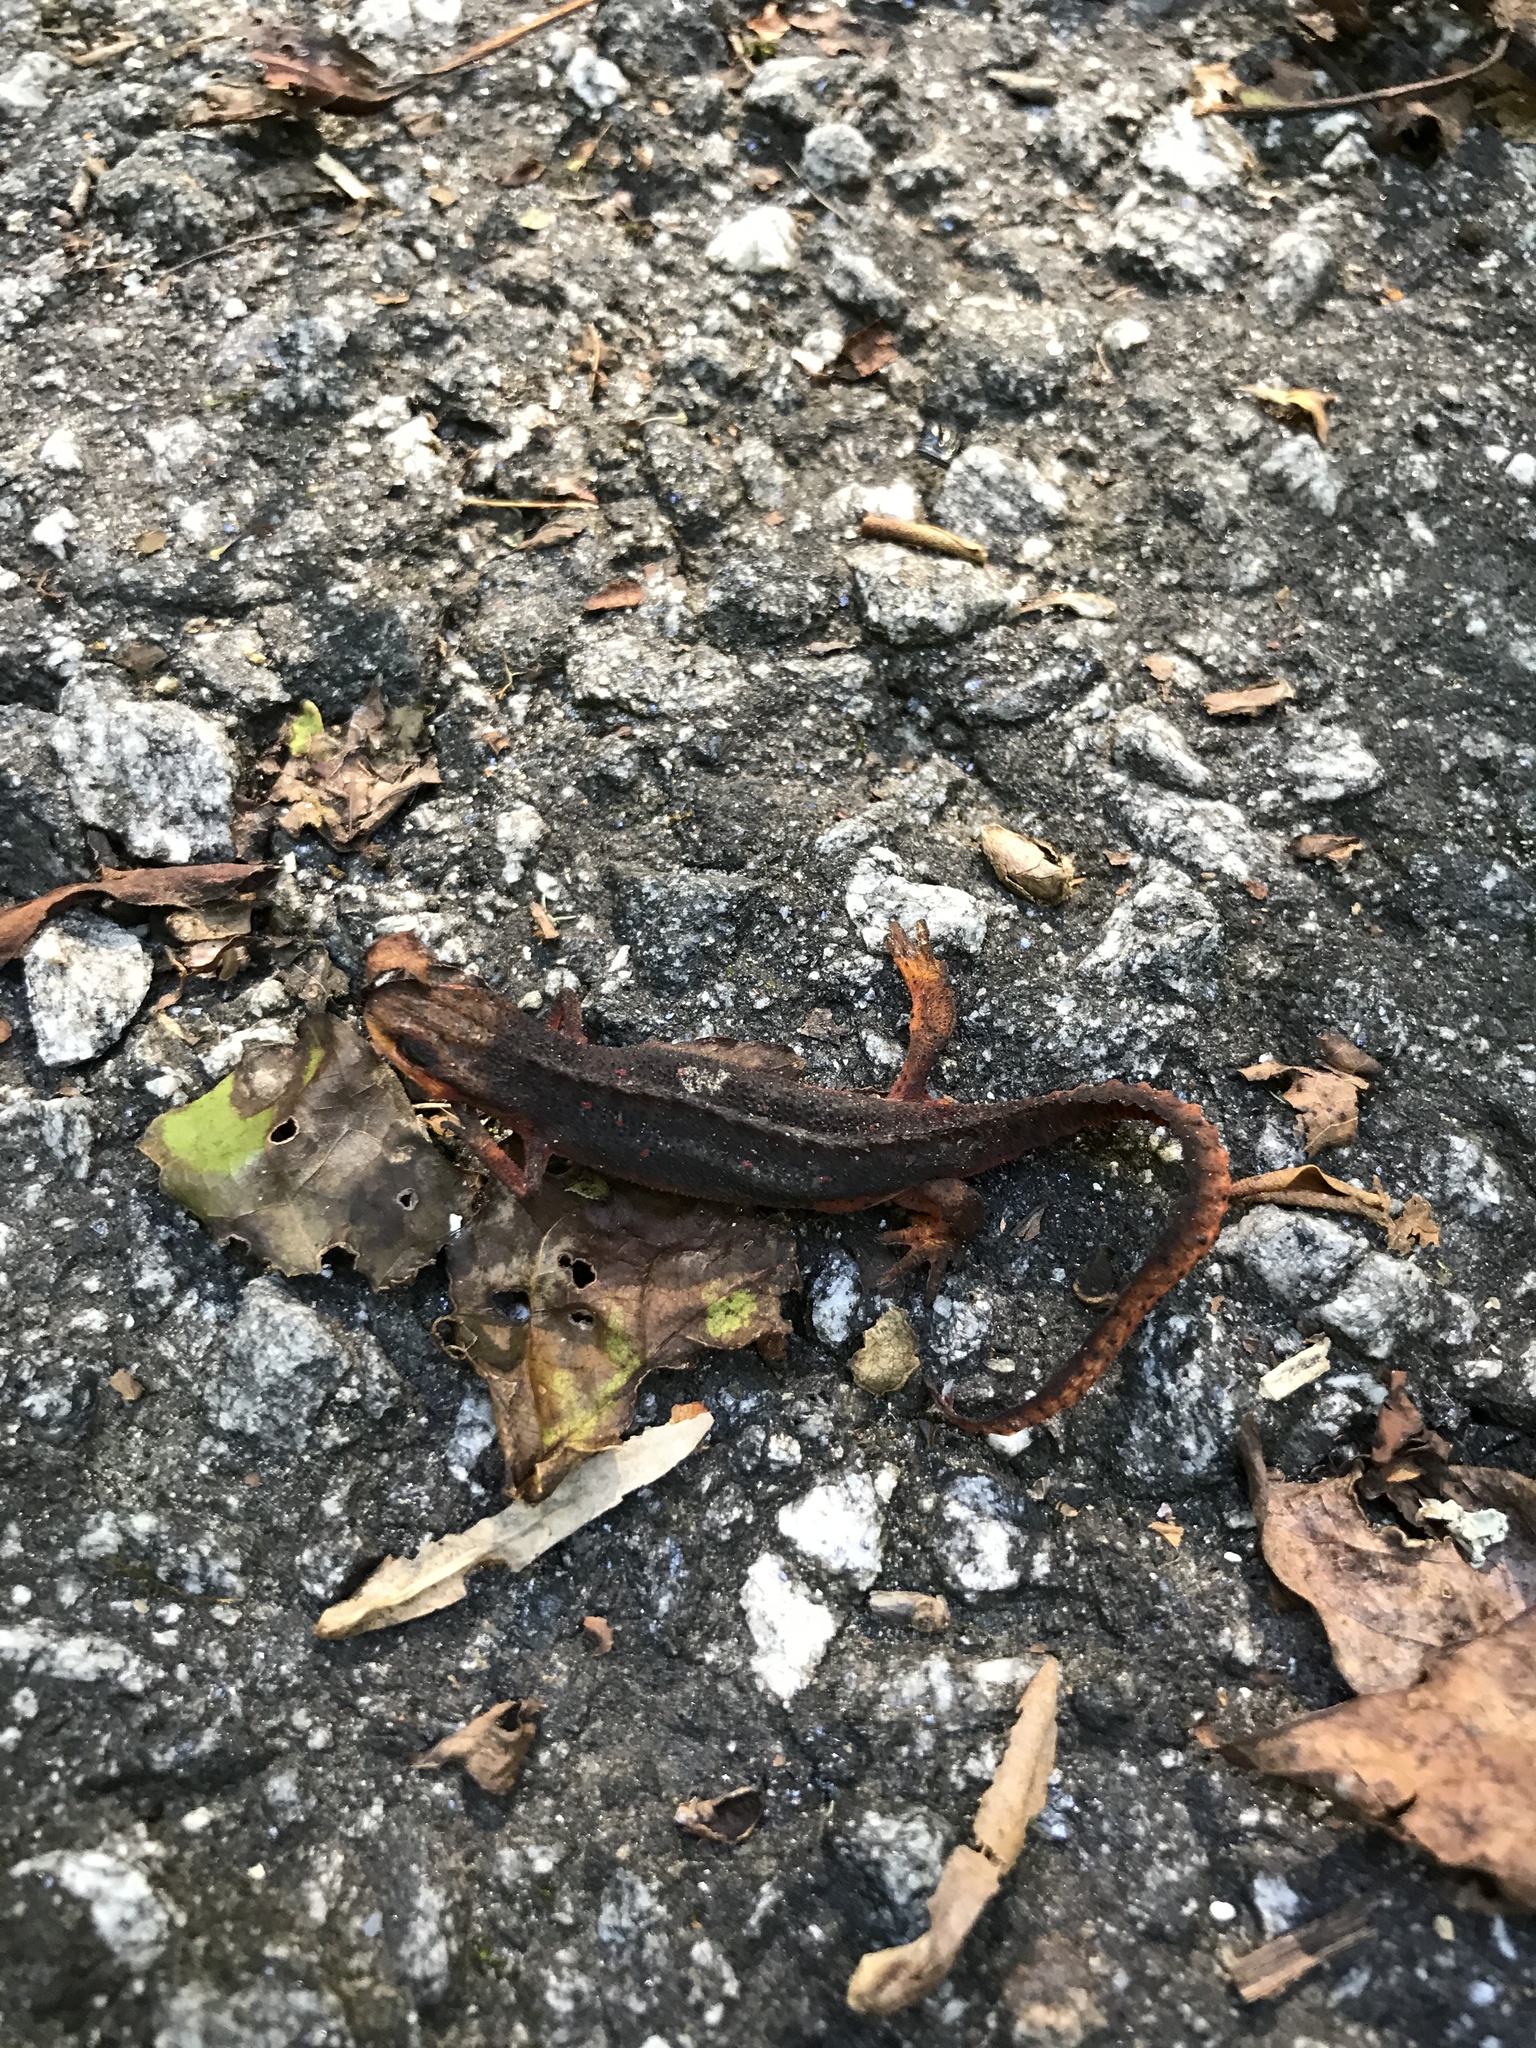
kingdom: Animalia
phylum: Chordata
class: Amphibia
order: Caudata
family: Salamandridae
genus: Notophthalmus
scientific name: Notophthalmus viridescens
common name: Eastern newt
